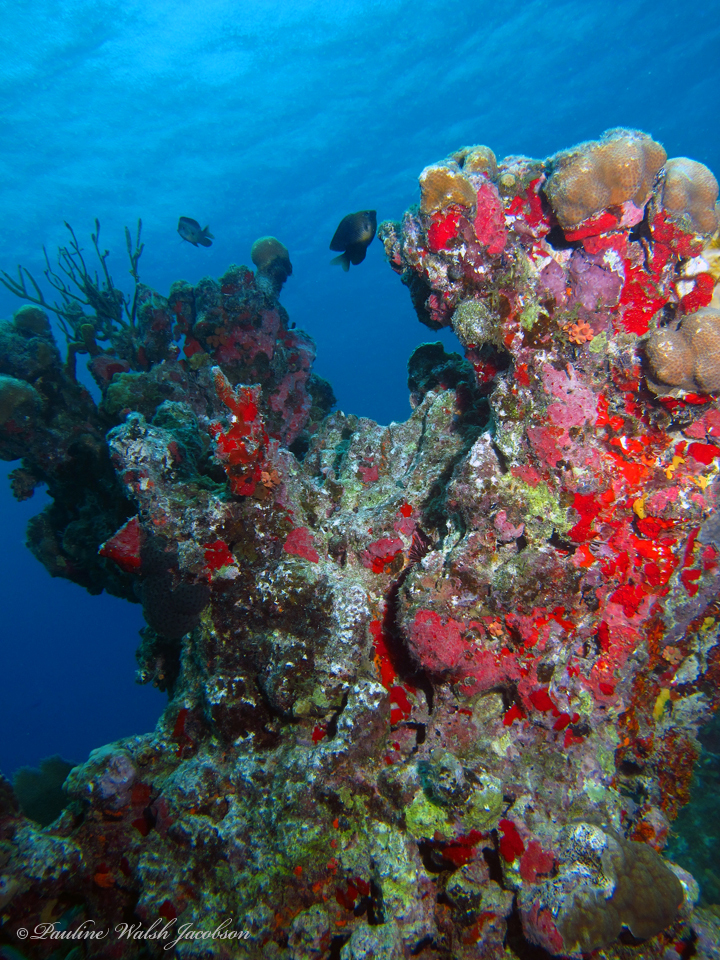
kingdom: Animalia
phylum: Cnidaria
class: Anthozoa
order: Scleractinia
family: Merulinidae
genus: Orbicella
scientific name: Orbicella annularis
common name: Boulder star coral
